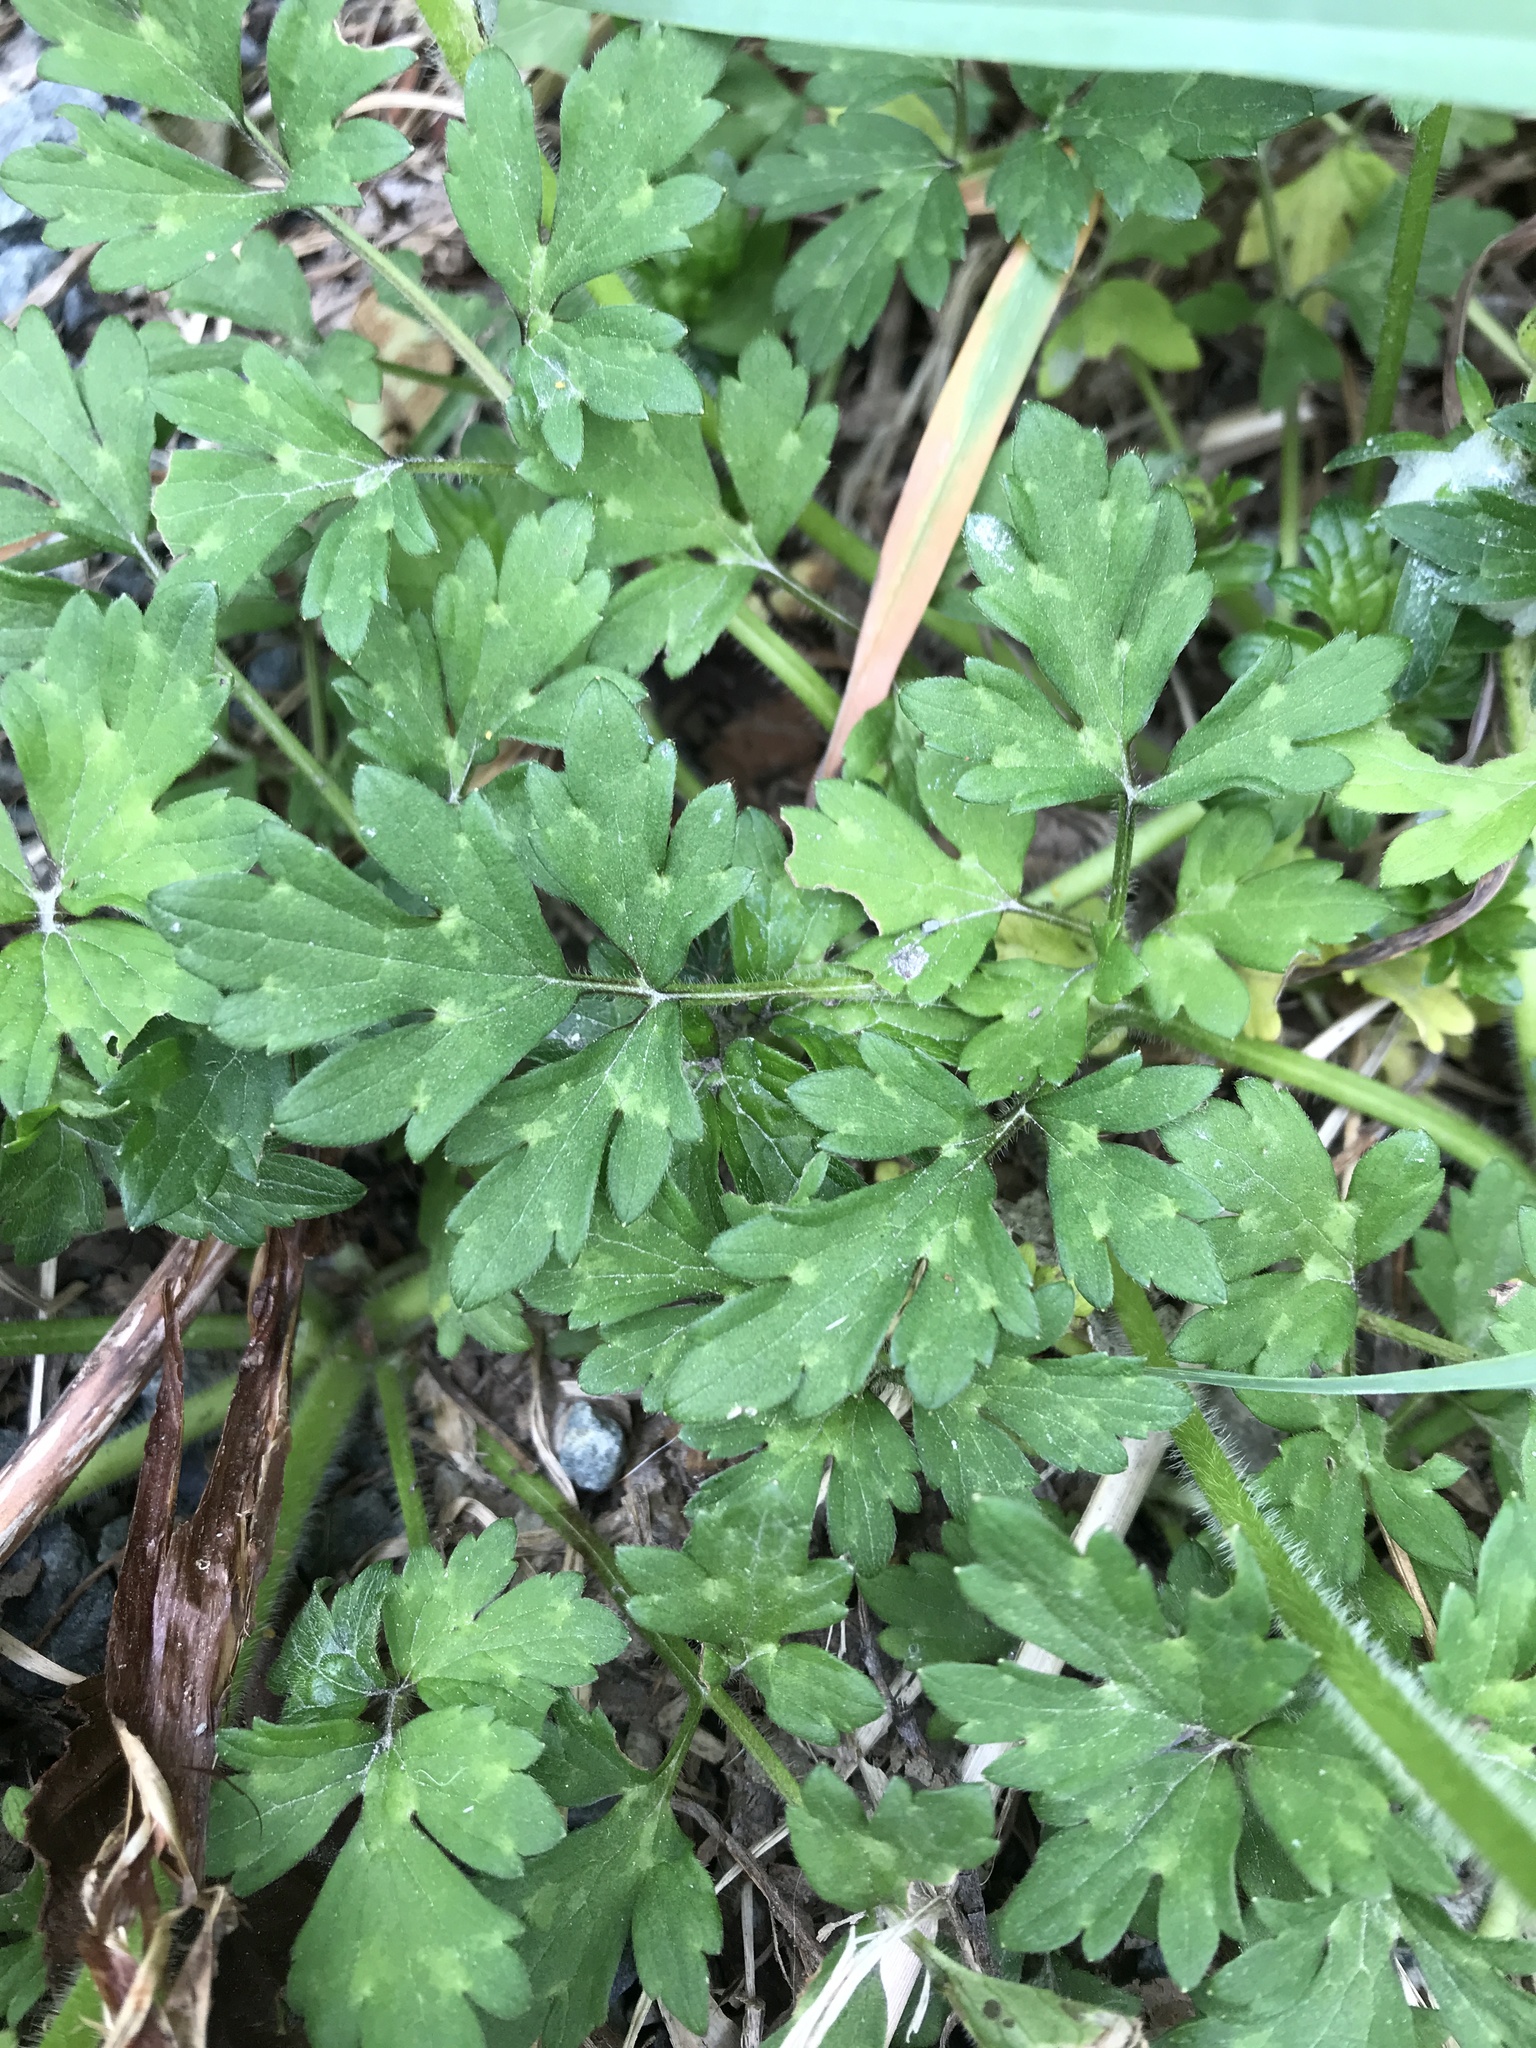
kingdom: Plantae
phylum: Tracheophyta
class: Magnoliopsida
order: Ranunculales
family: Ranunculaceae
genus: Ranunculus
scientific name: Ranunculus repens
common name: Creeping buttercup
